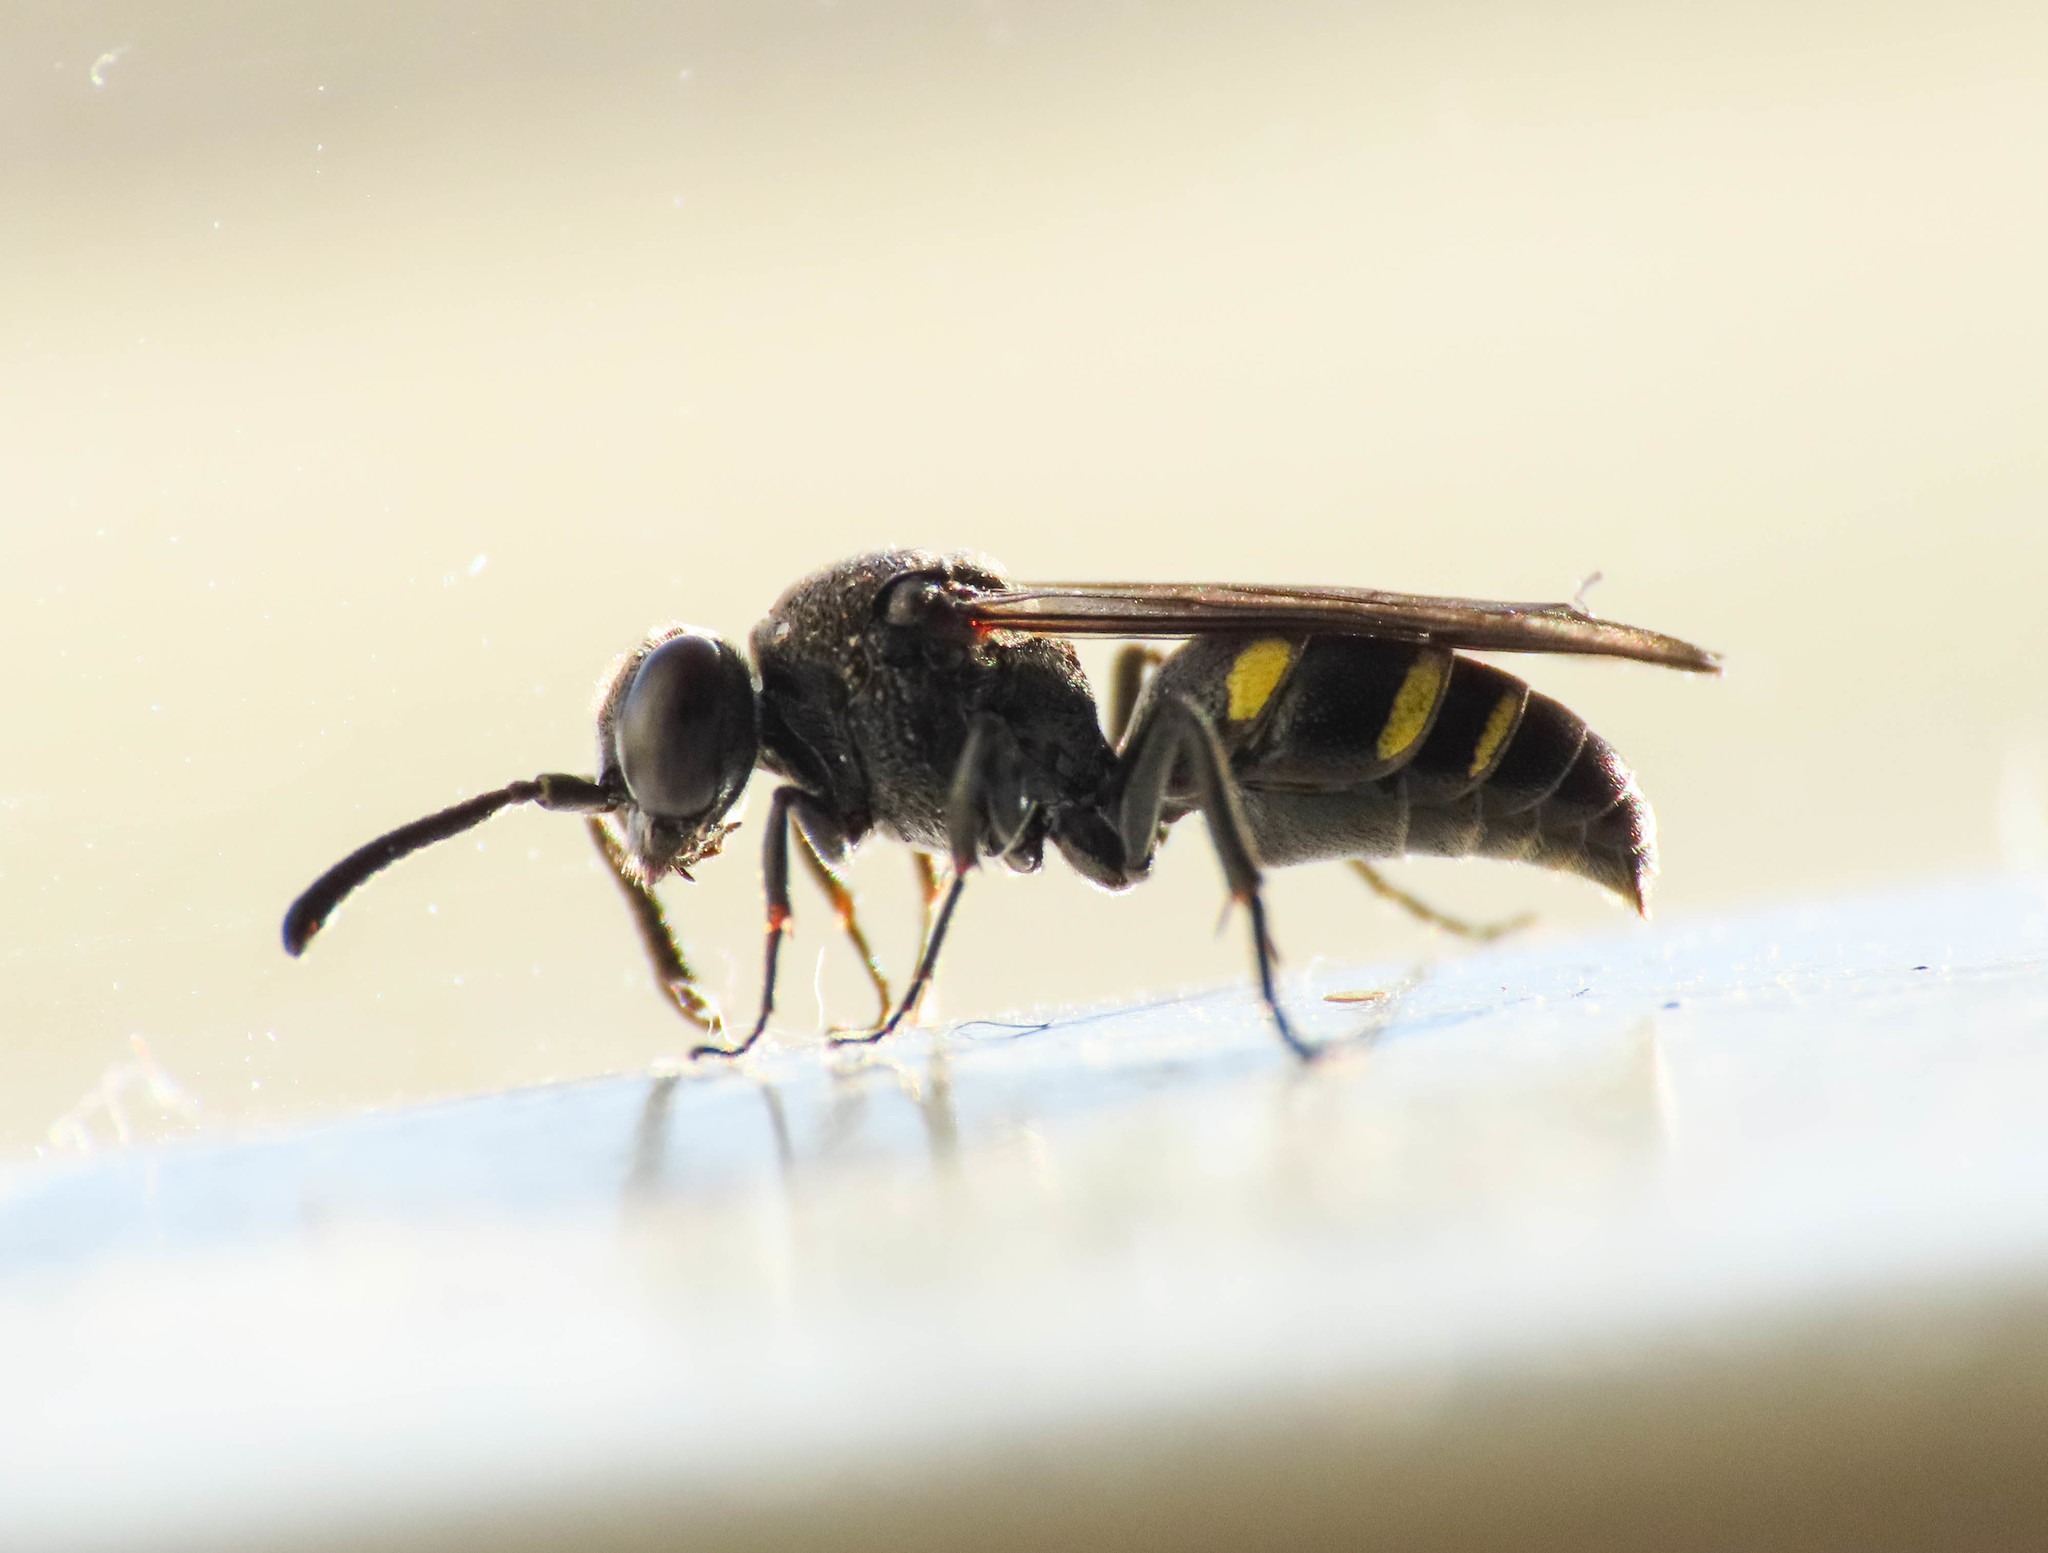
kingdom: Animalia
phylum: Arthropoda
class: Insecta
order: Hymenoptera
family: Crabronidae
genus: Nysson
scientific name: Nysson trimaculatus
